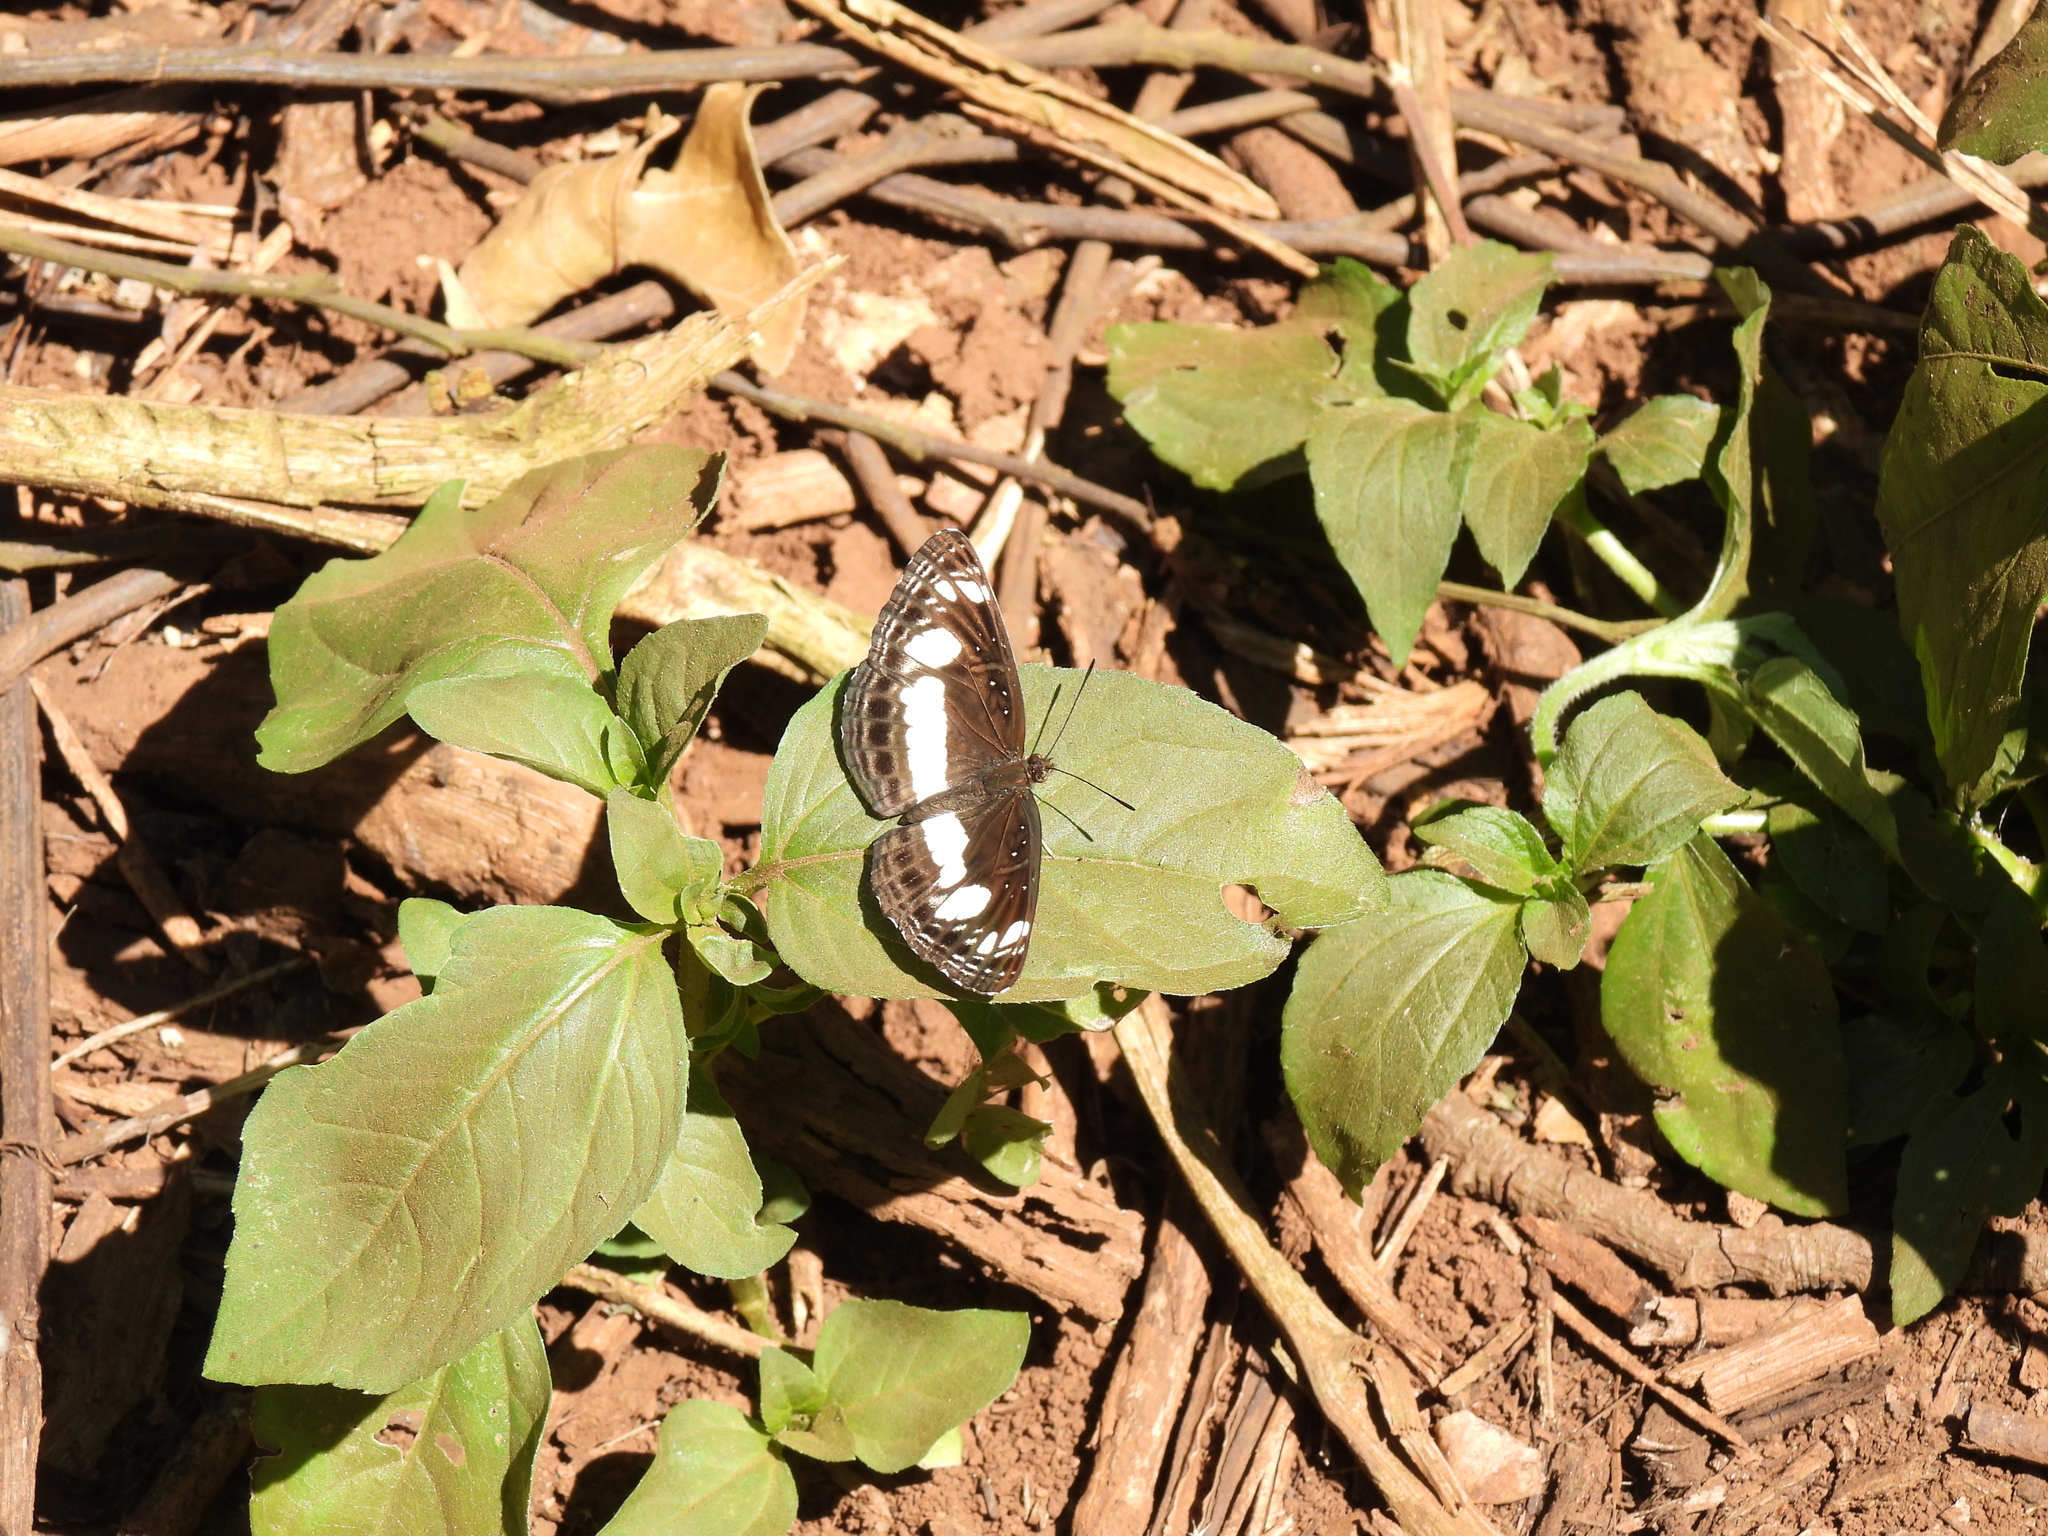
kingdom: Animalia
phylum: Arthropoda
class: Insecta
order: Lepidoptera
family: Nymphalidae
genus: Neptis
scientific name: Neptis saclava
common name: Small spotted sailor
